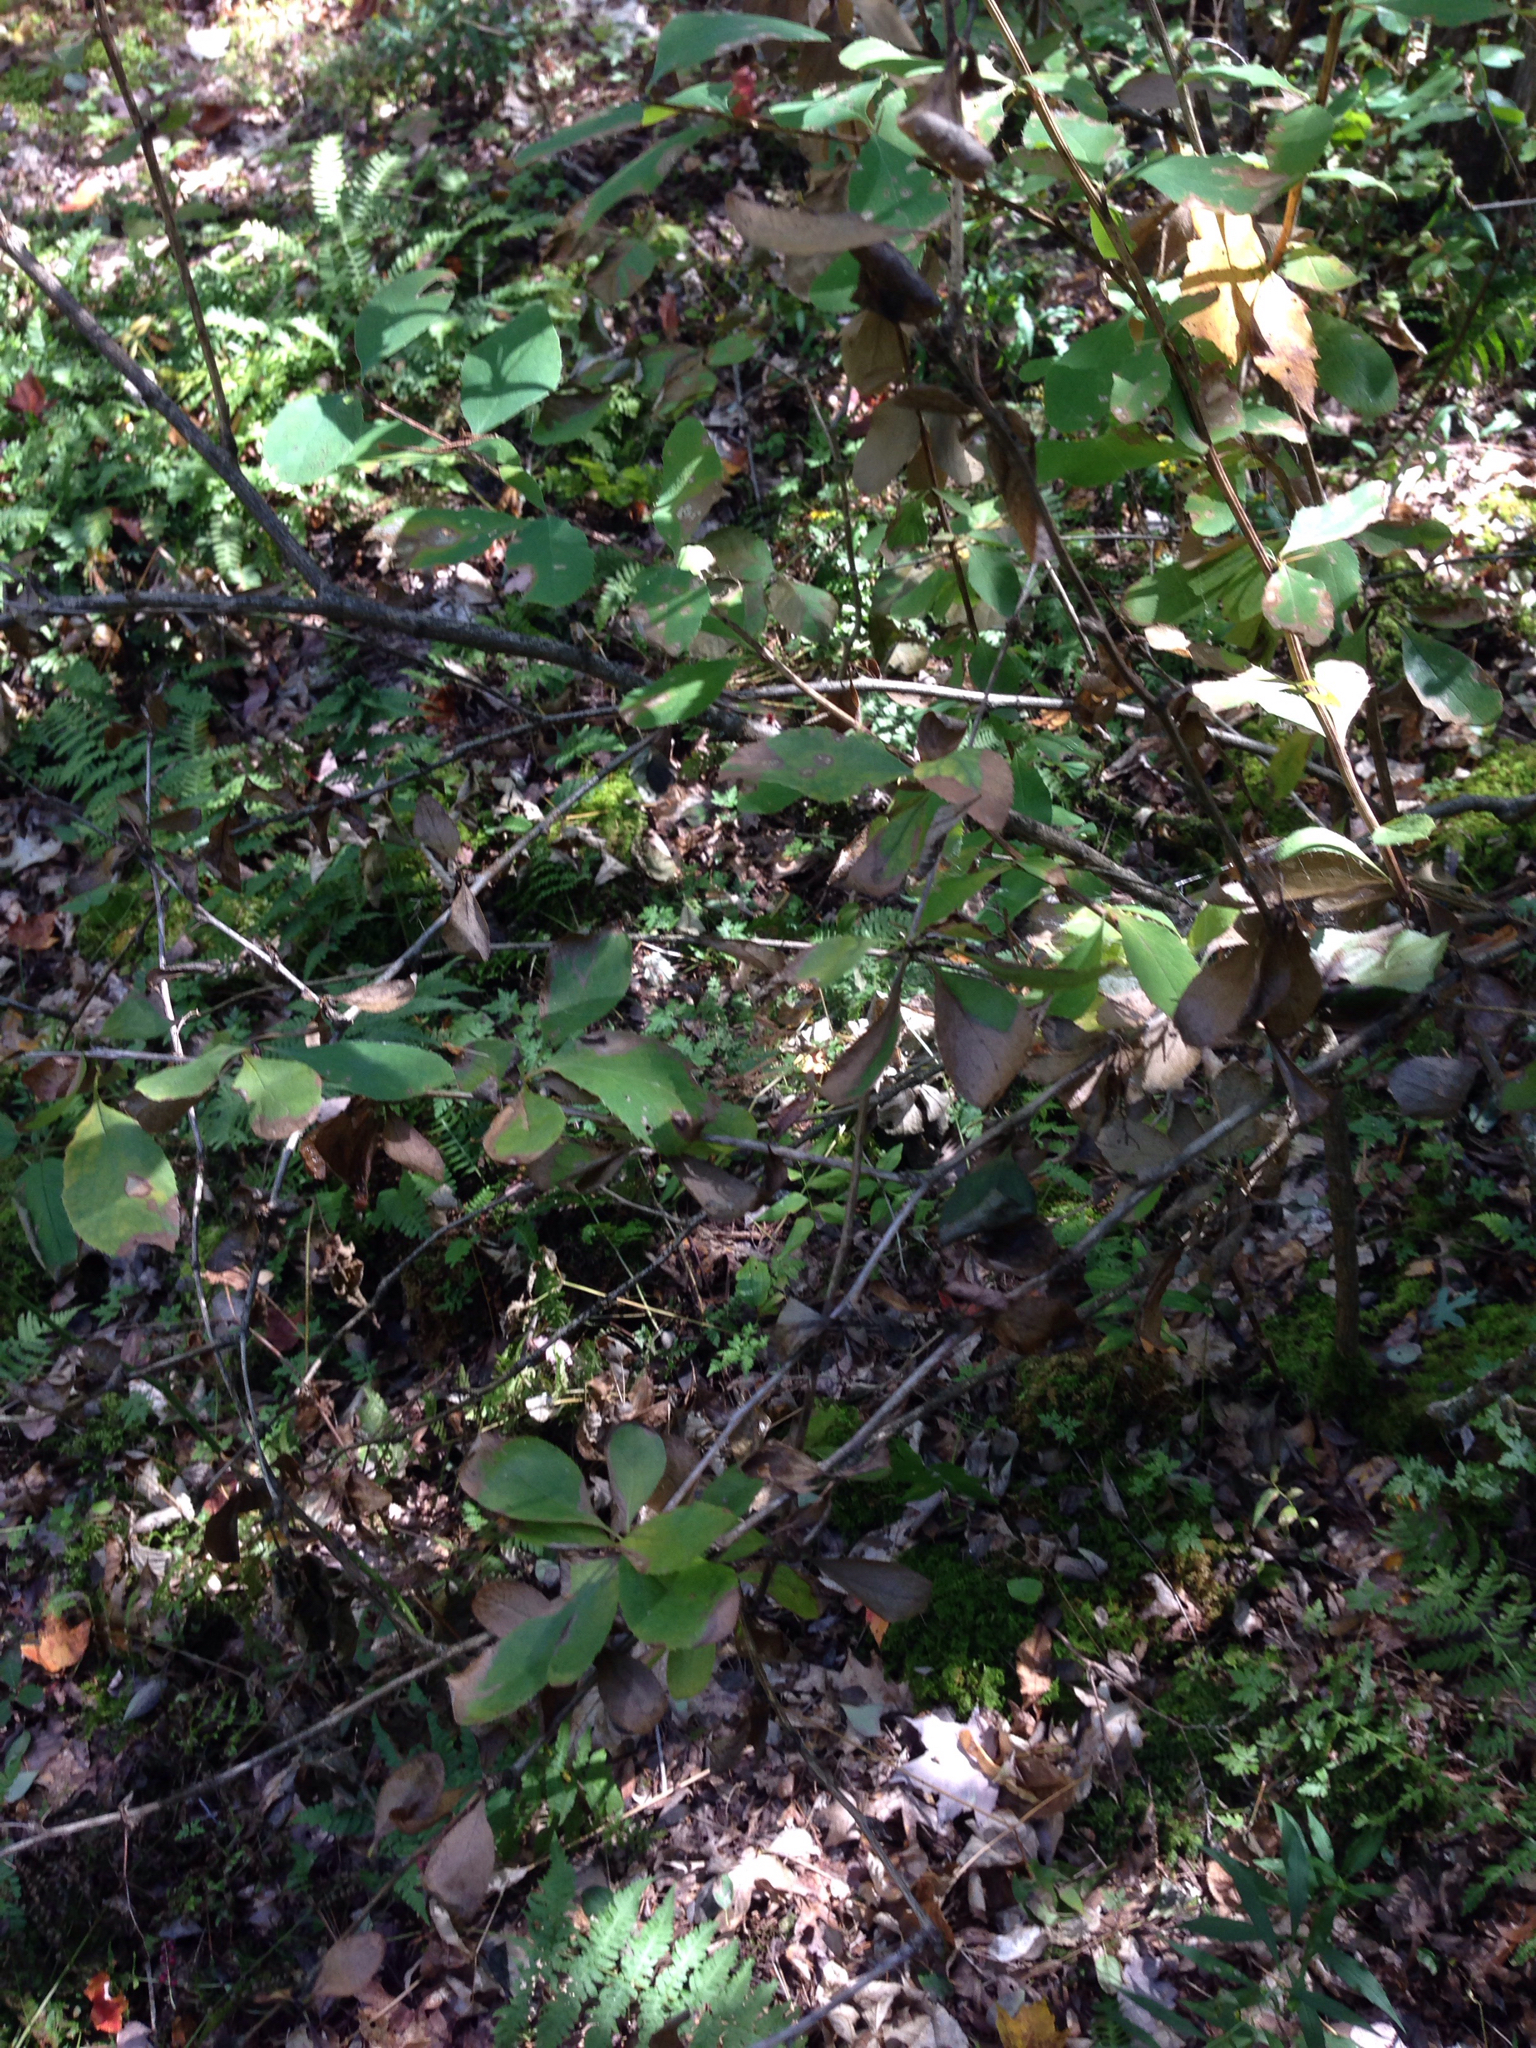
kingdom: Plantae
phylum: Tracheophyta
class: Magnoliopsida
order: Ranunculales
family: Berberidaceae
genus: Berberis
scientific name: Berberis vulgaris
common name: Barberry
